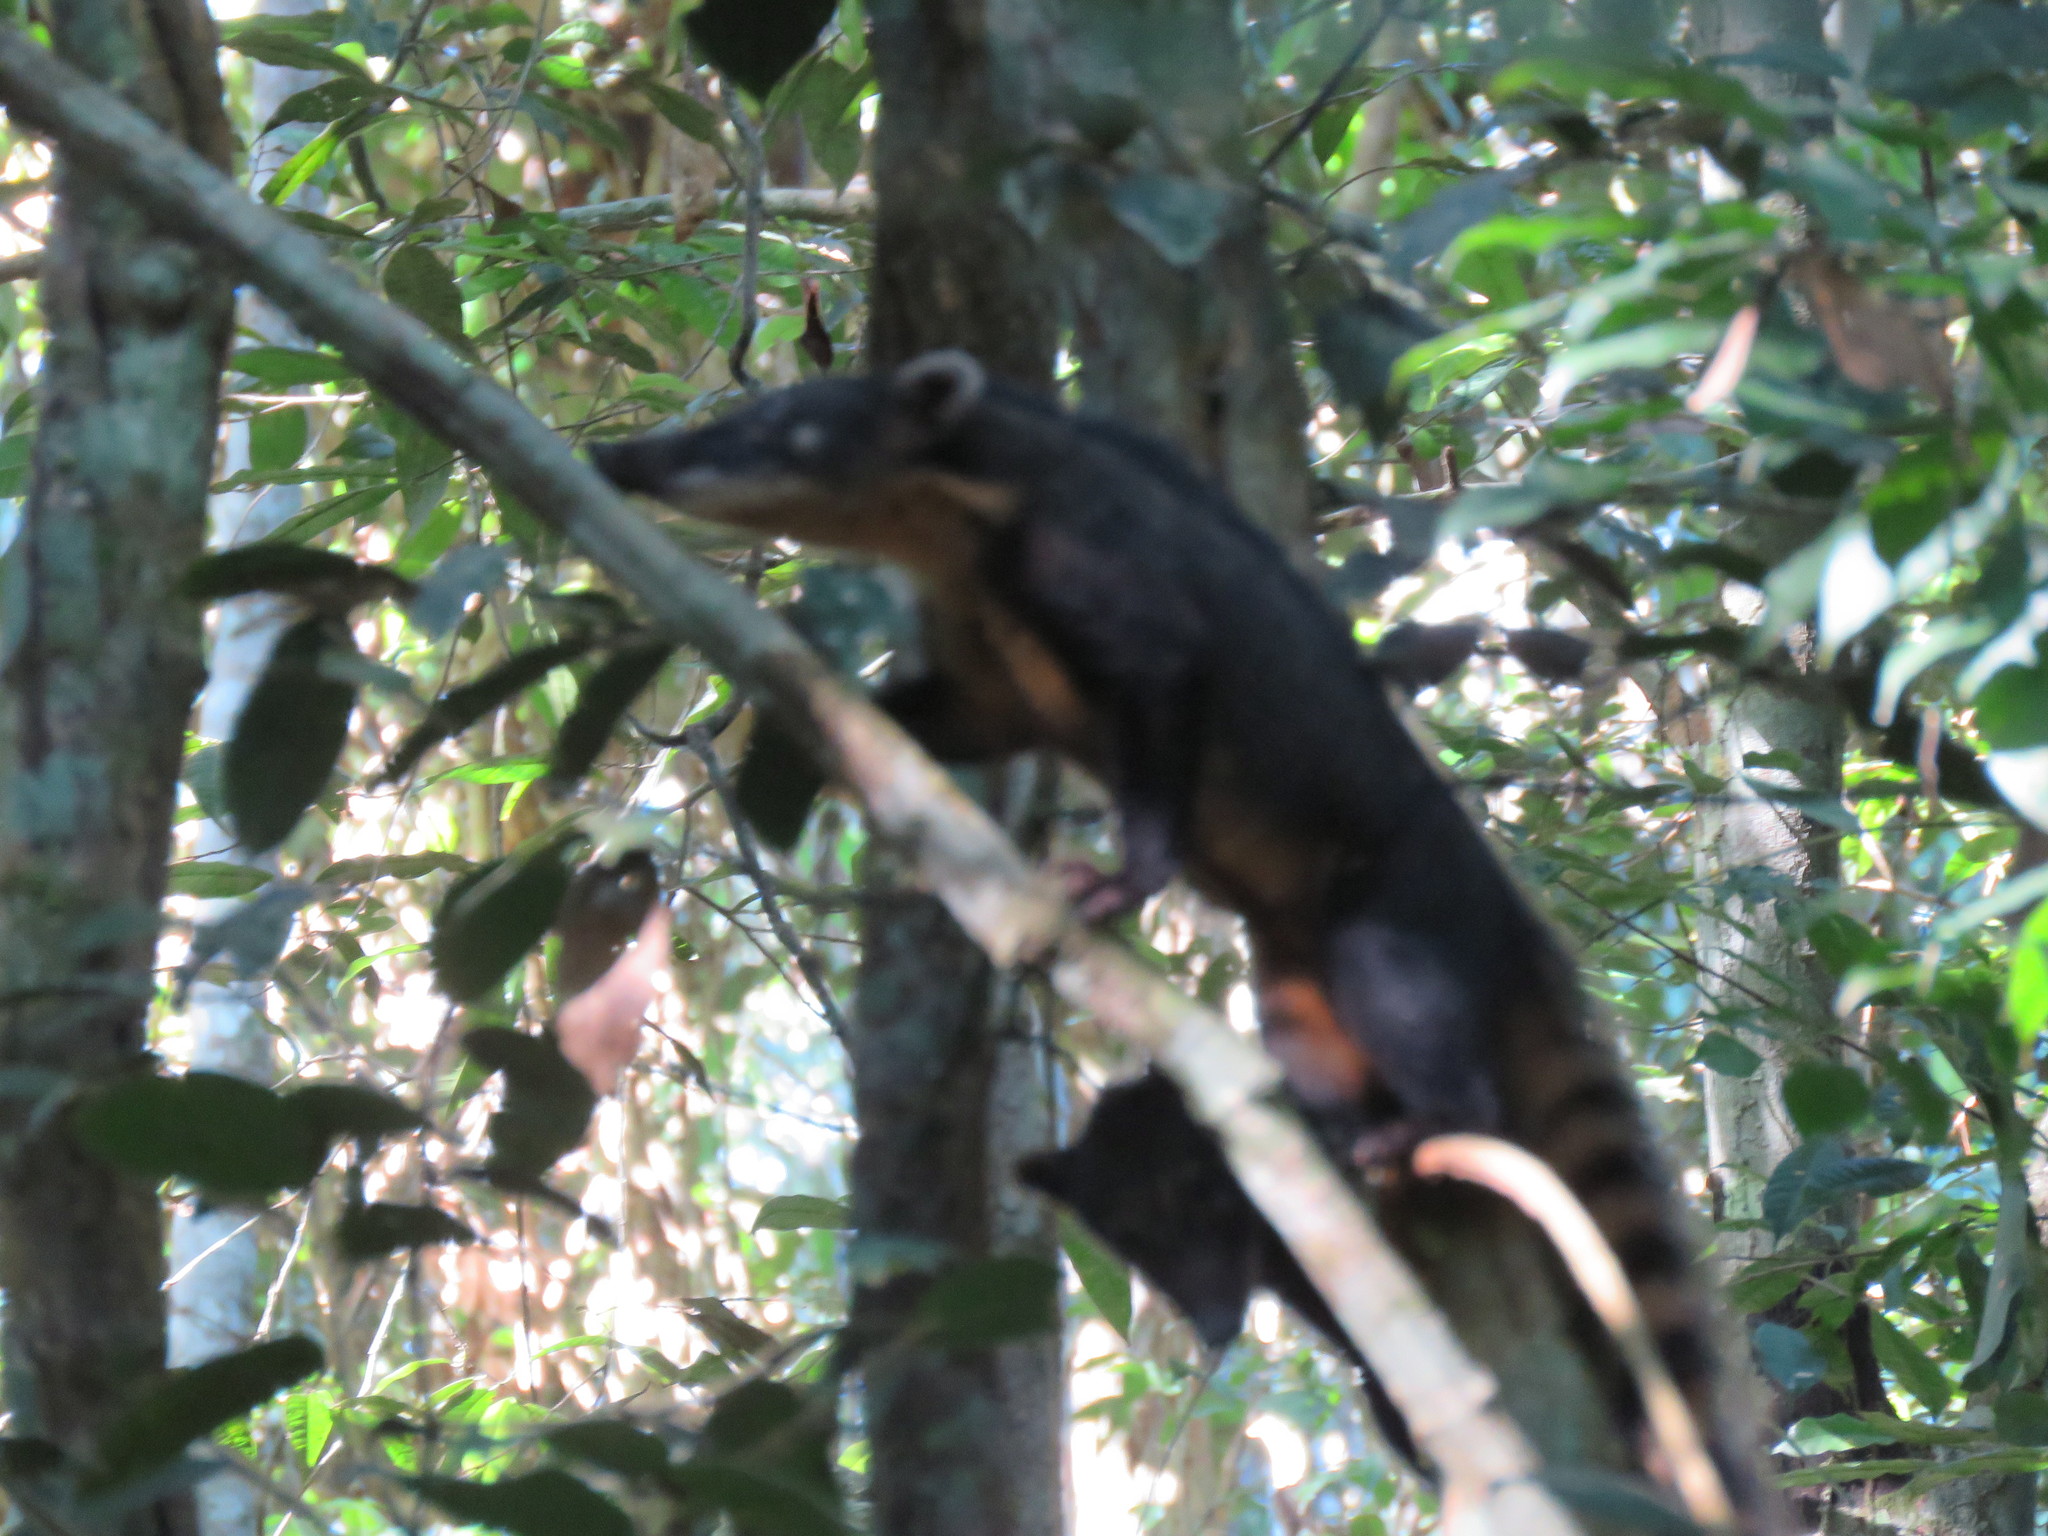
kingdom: Animalia
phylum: Chordata
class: Mammalia
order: Carnivora
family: Procyonidae
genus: Nasua
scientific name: Nasua nasua
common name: South american coati
